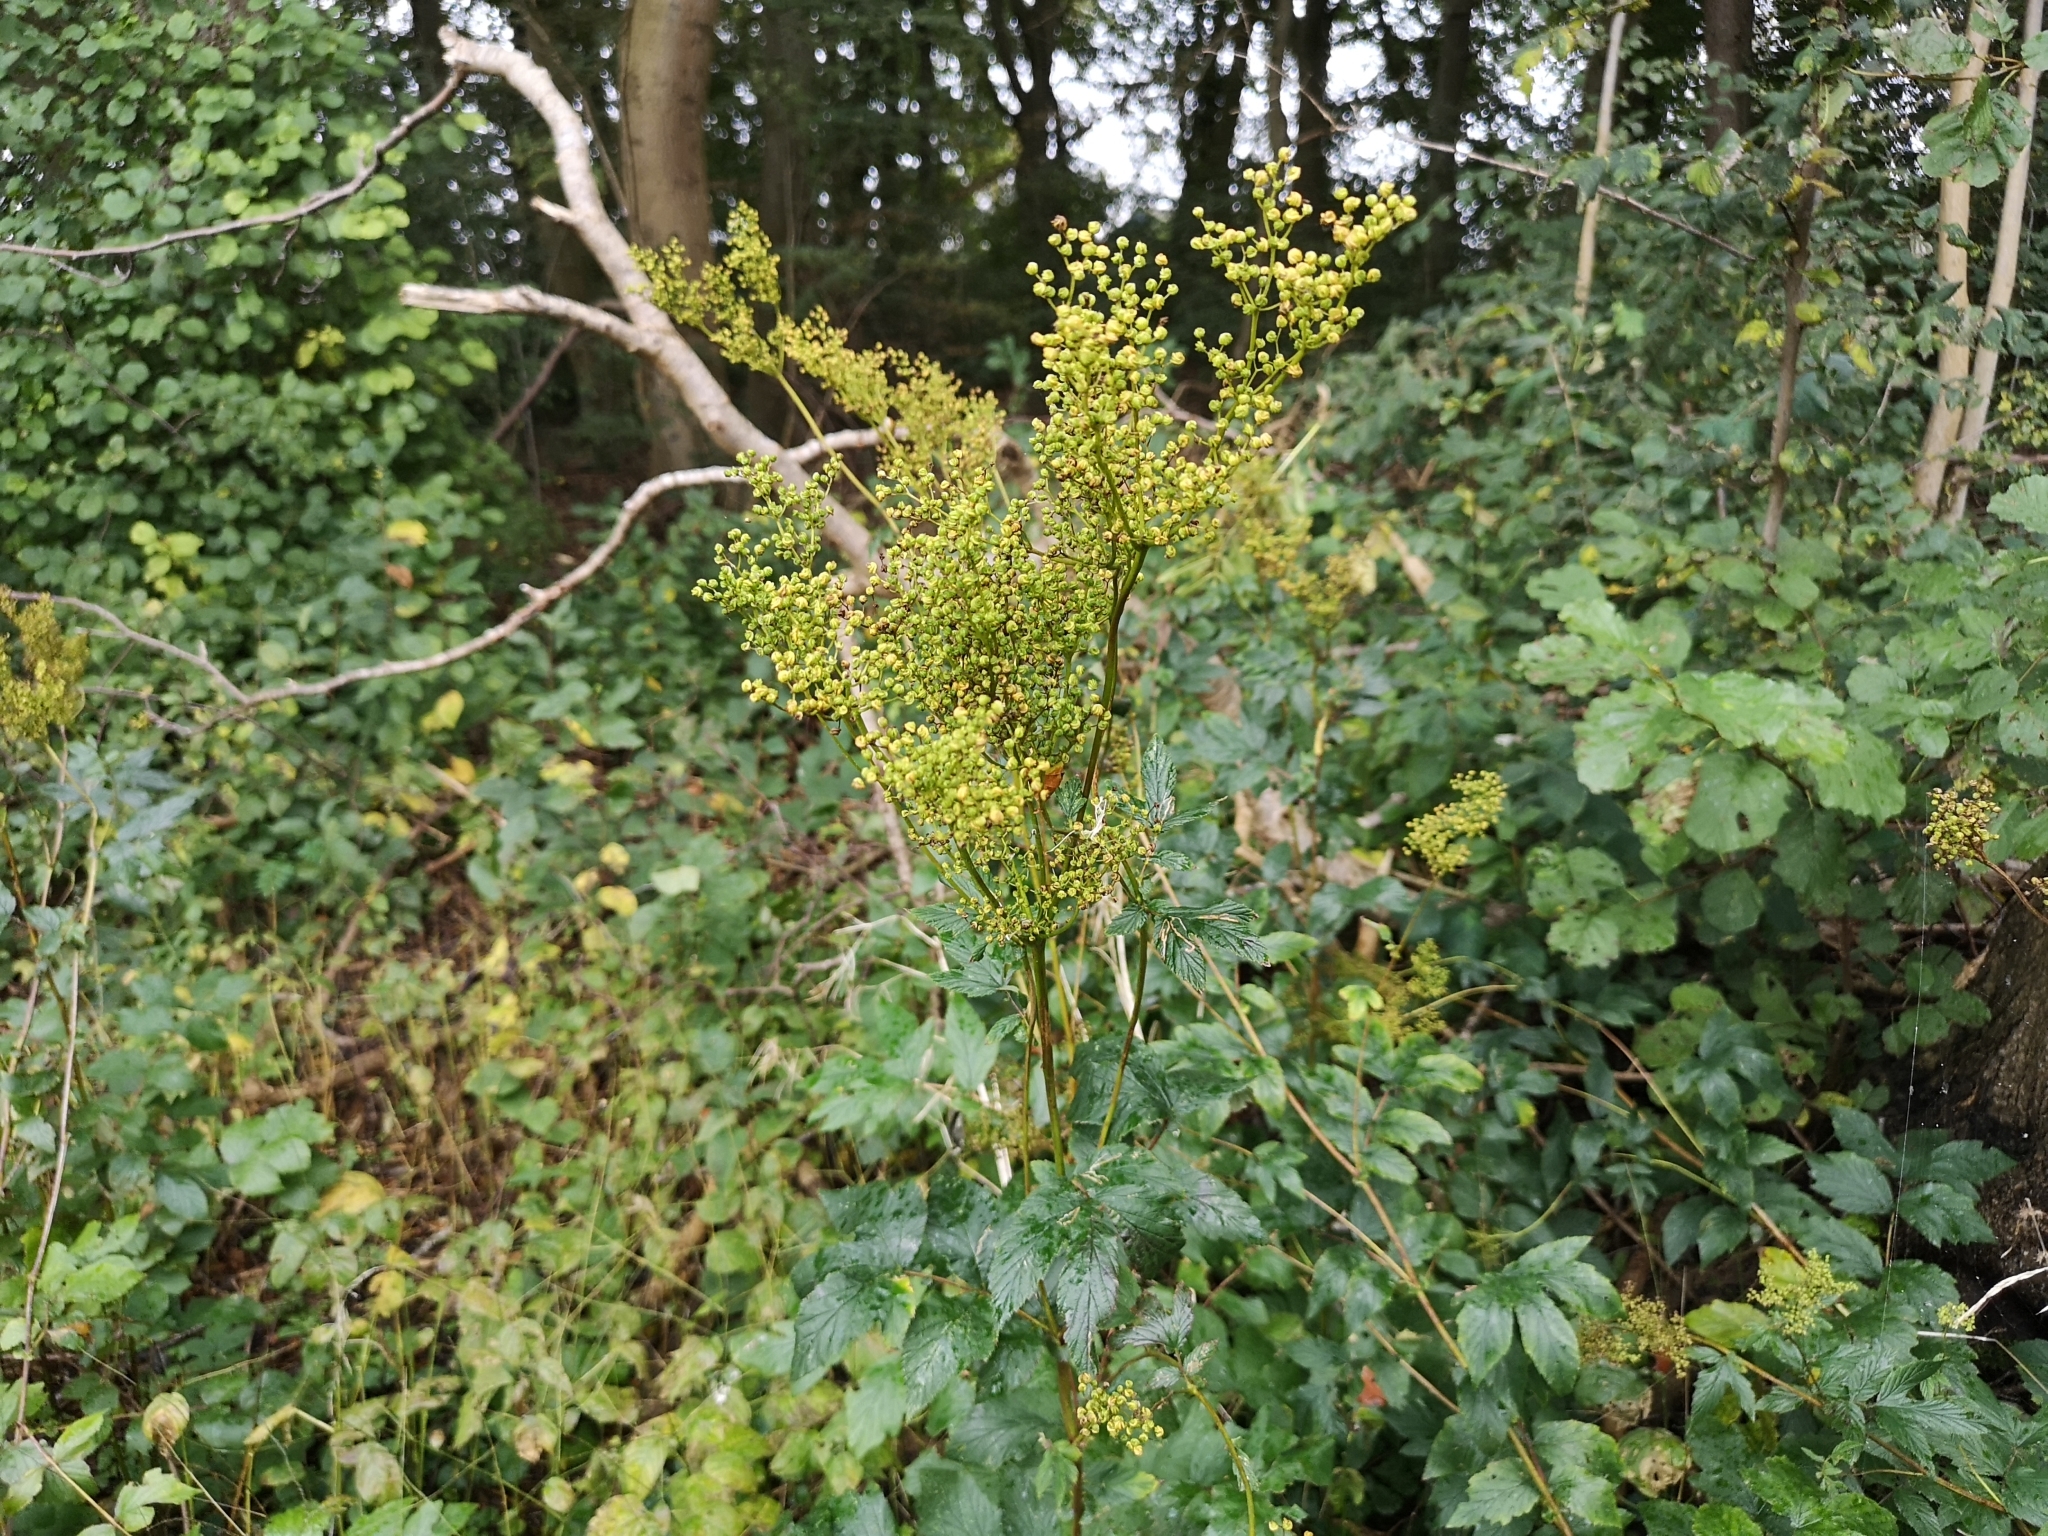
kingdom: Plantae
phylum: Tracheophyta
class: Magnoliopsida
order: Rosales
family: Rosaceae
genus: Filipendula
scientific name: Filipendula ulmaria
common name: Meadowsweet
